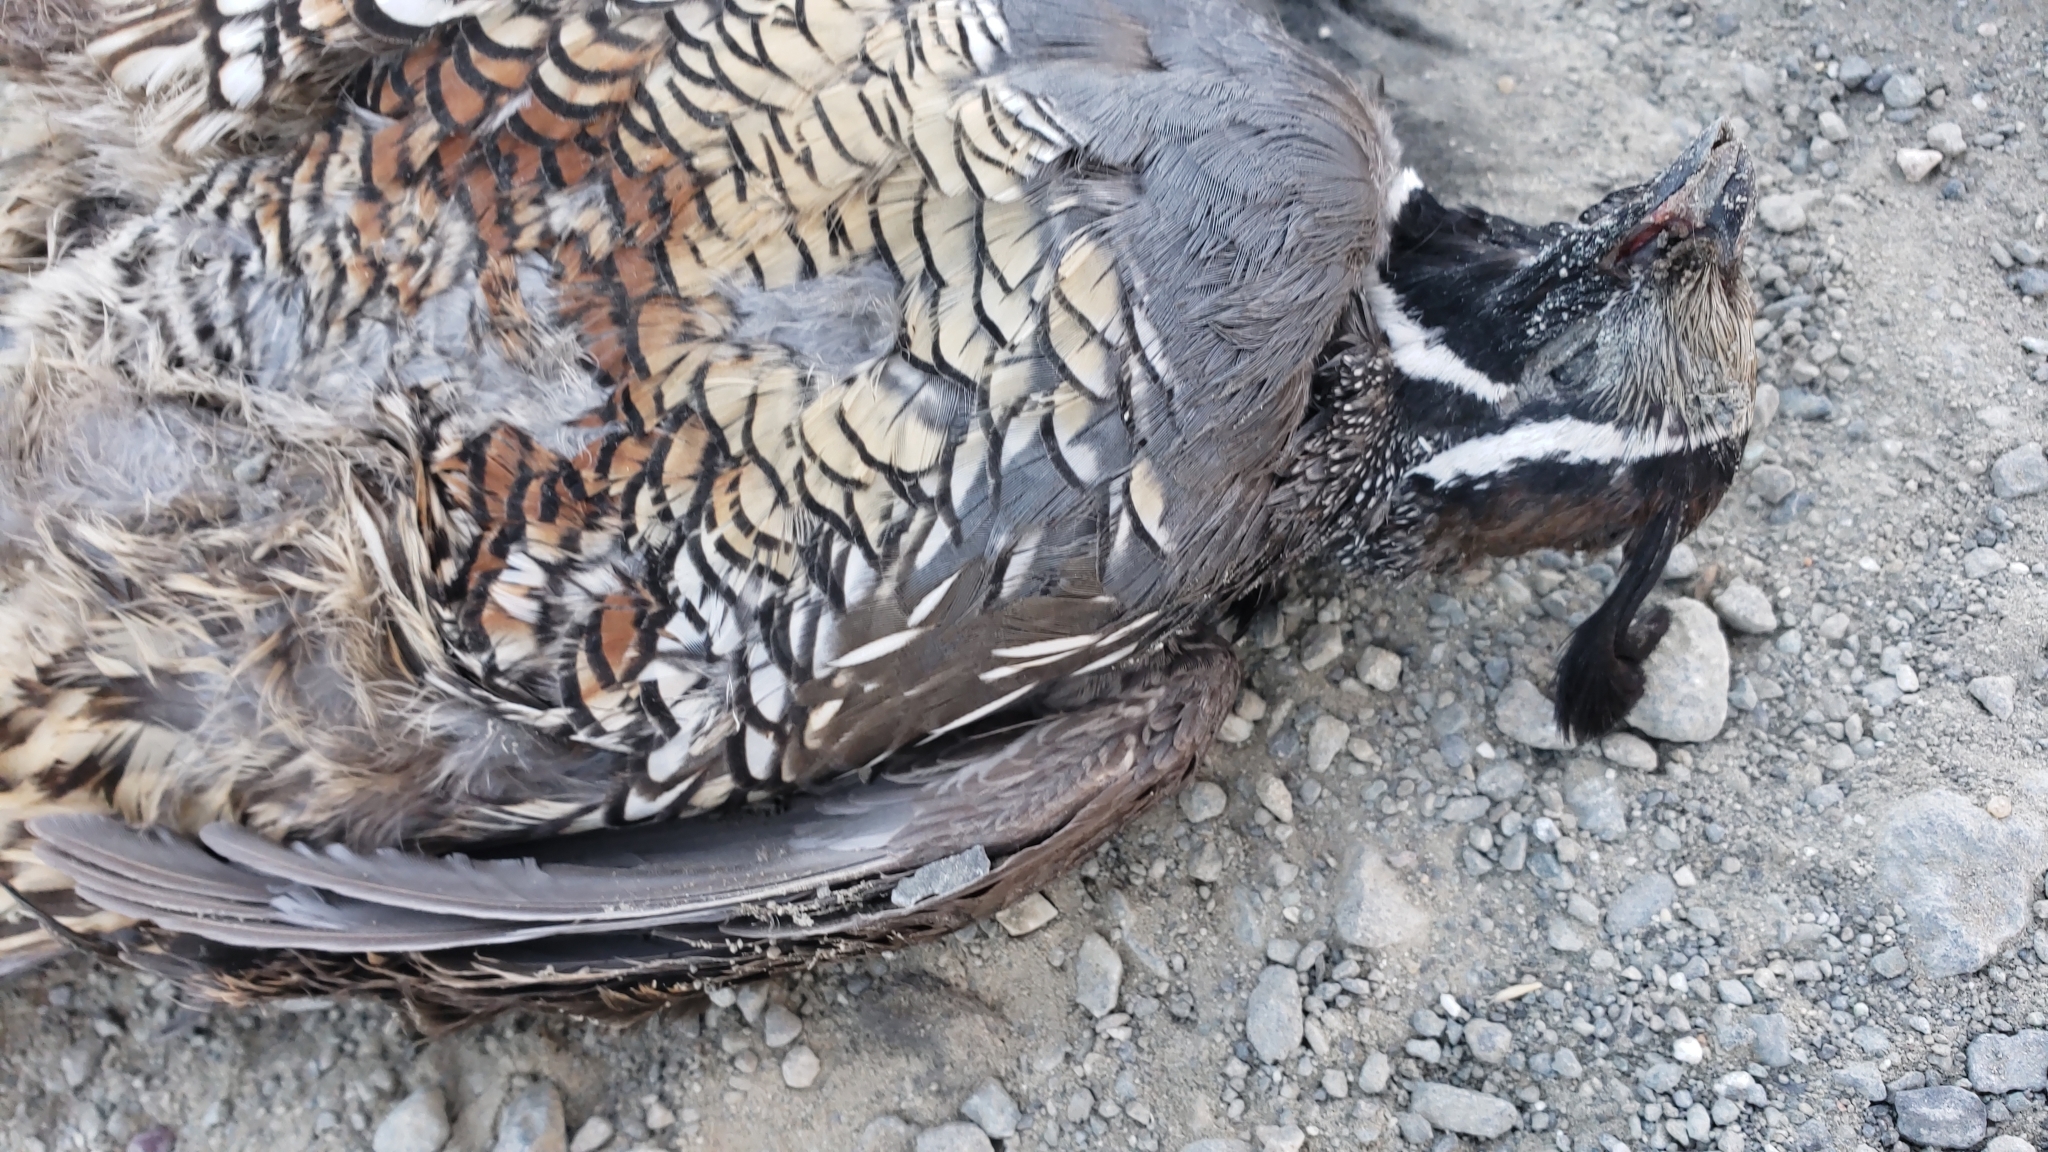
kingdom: Animalia
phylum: Chordata
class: Aves
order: Galliformes
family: Odontophoridae
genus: Callipepla
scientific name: Callipepla californica
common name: California quail
